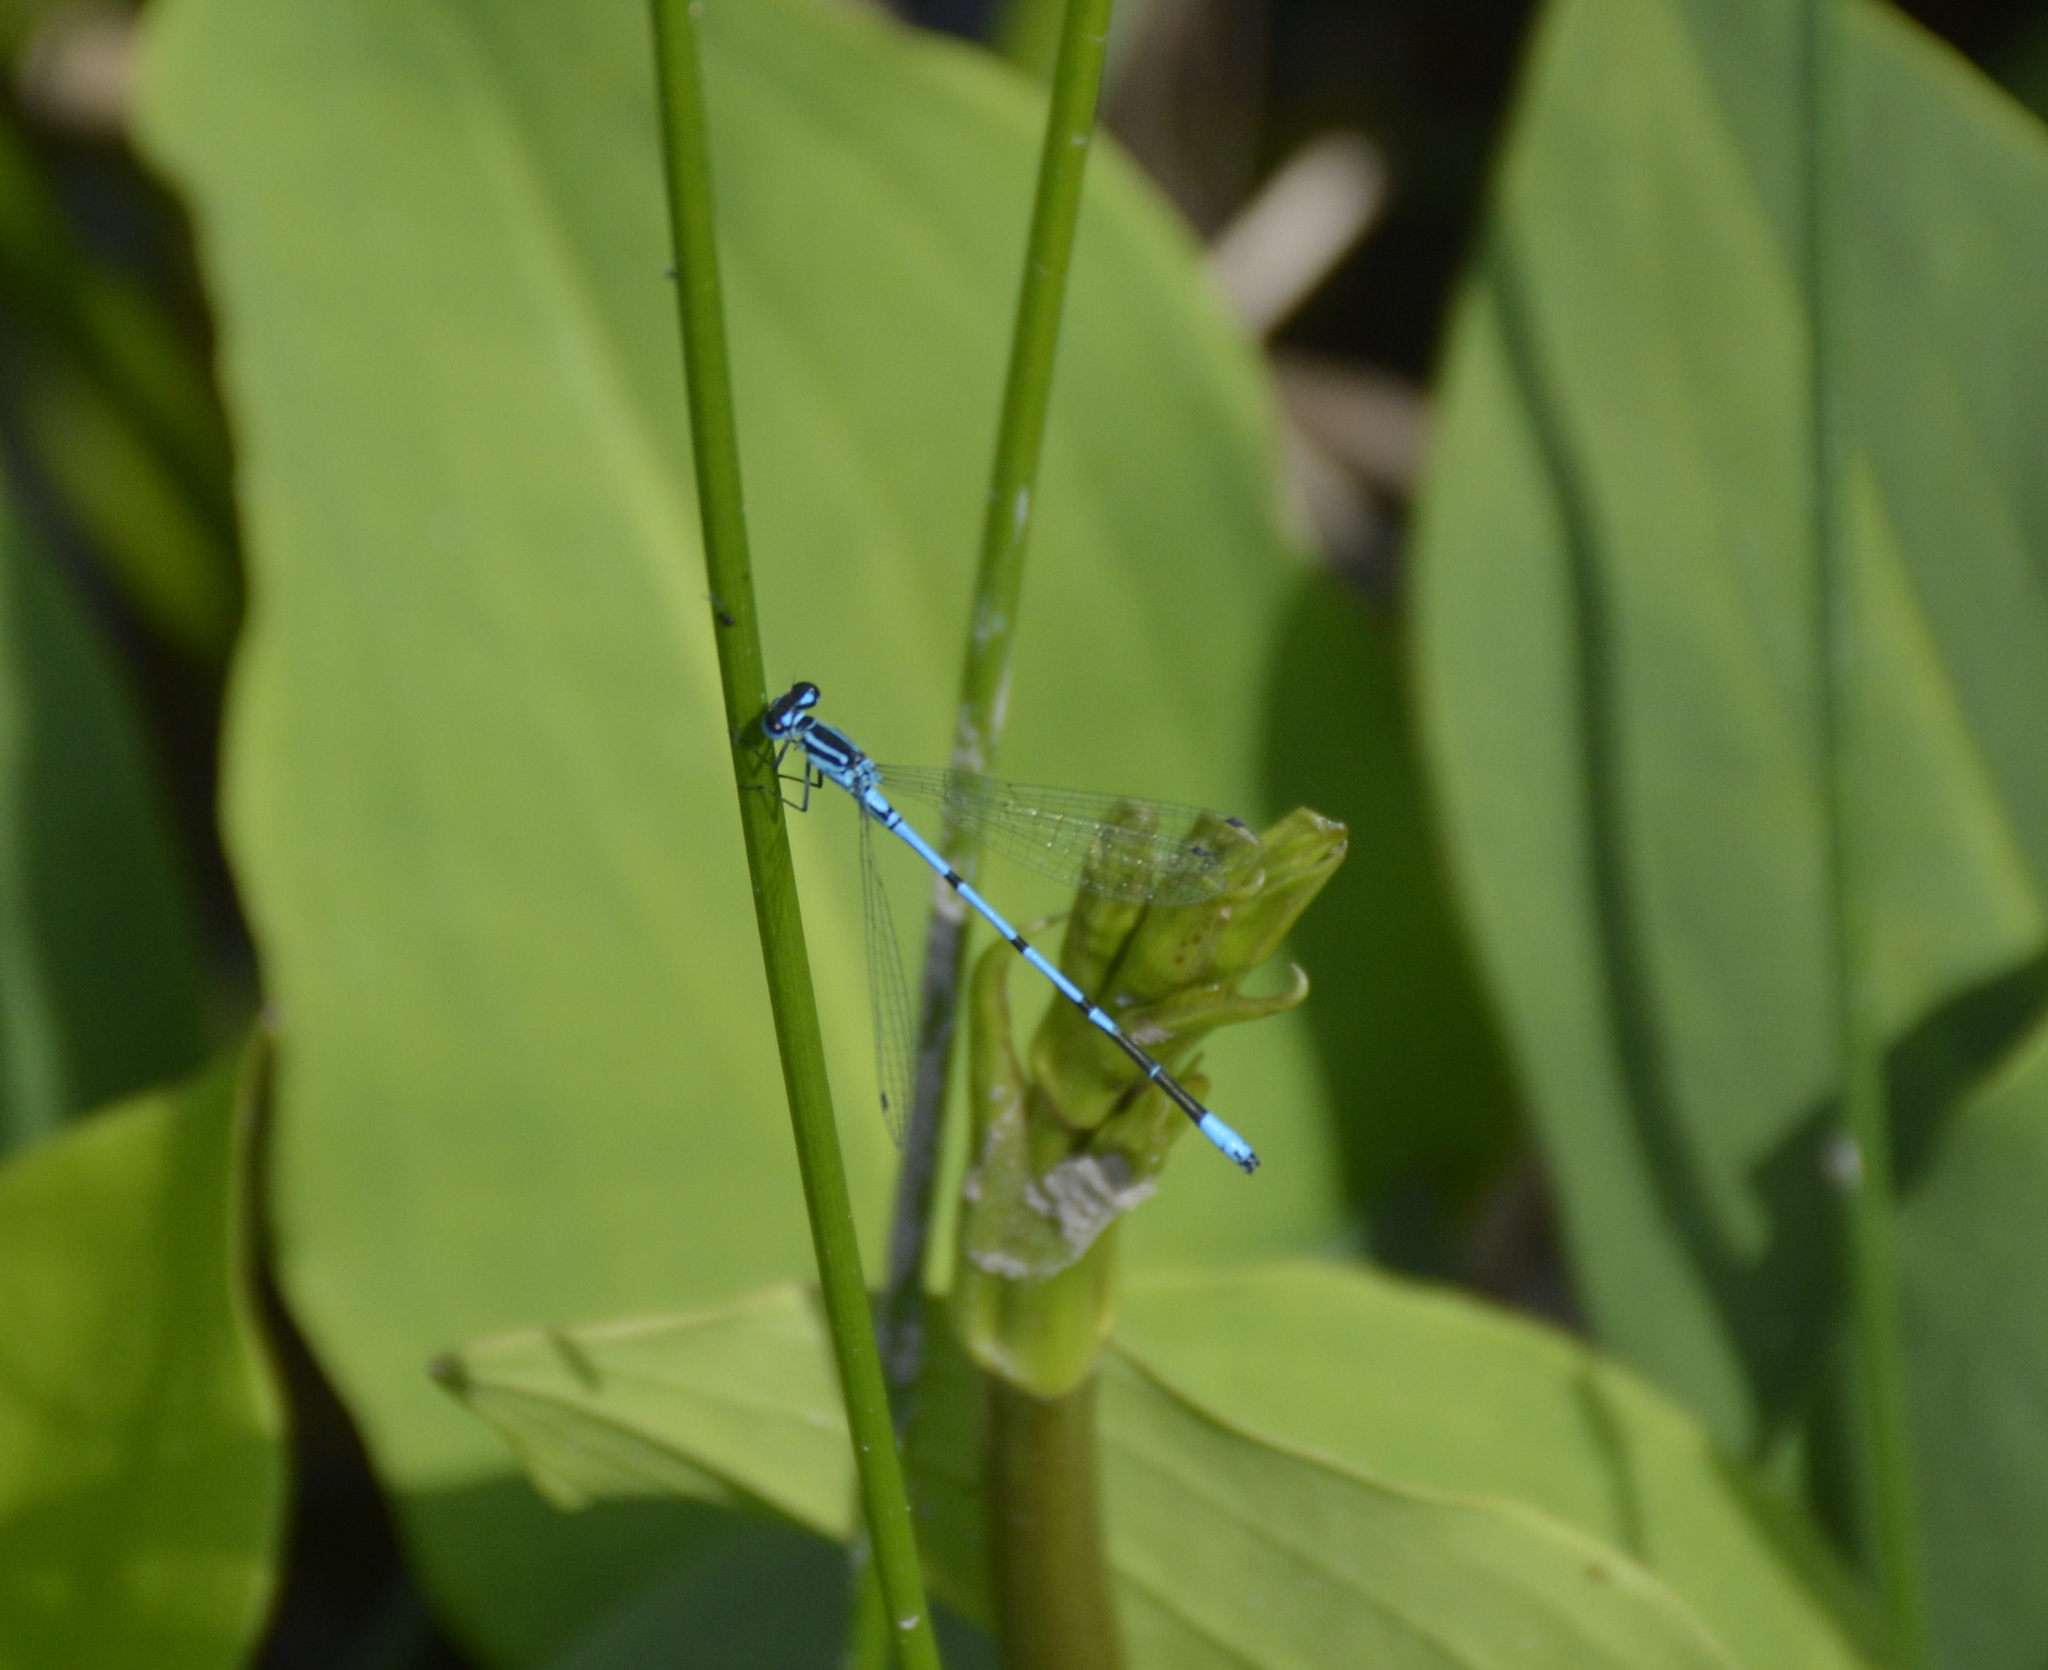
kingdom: Animalia
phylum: Arthropoda
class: Insecta
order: Odonata
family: Coenagrionidae
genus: Coenagrion
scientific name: Coenagrion puella
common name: Azure damselfly
